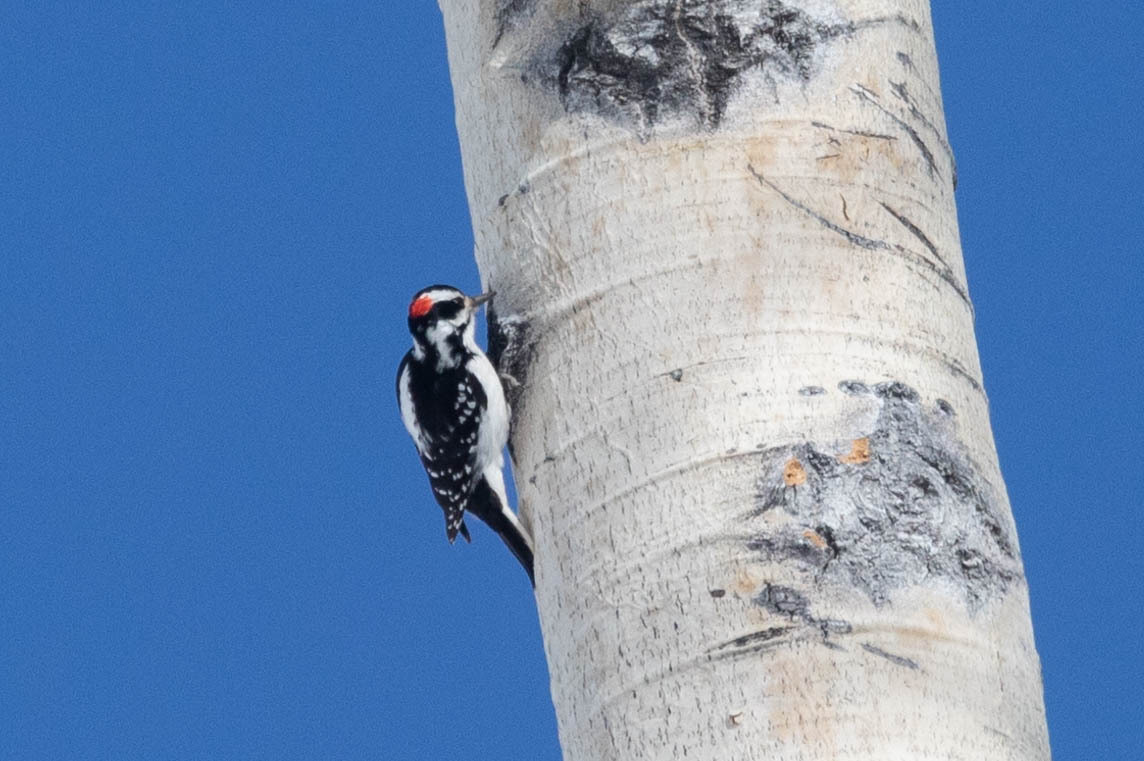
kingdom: Animalia
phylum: Chordata
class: Aves
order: Piciformes
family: Picidae
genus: Leuconotopicus
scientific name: Leuconotopicus villosus
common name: Hairy woodpecker
